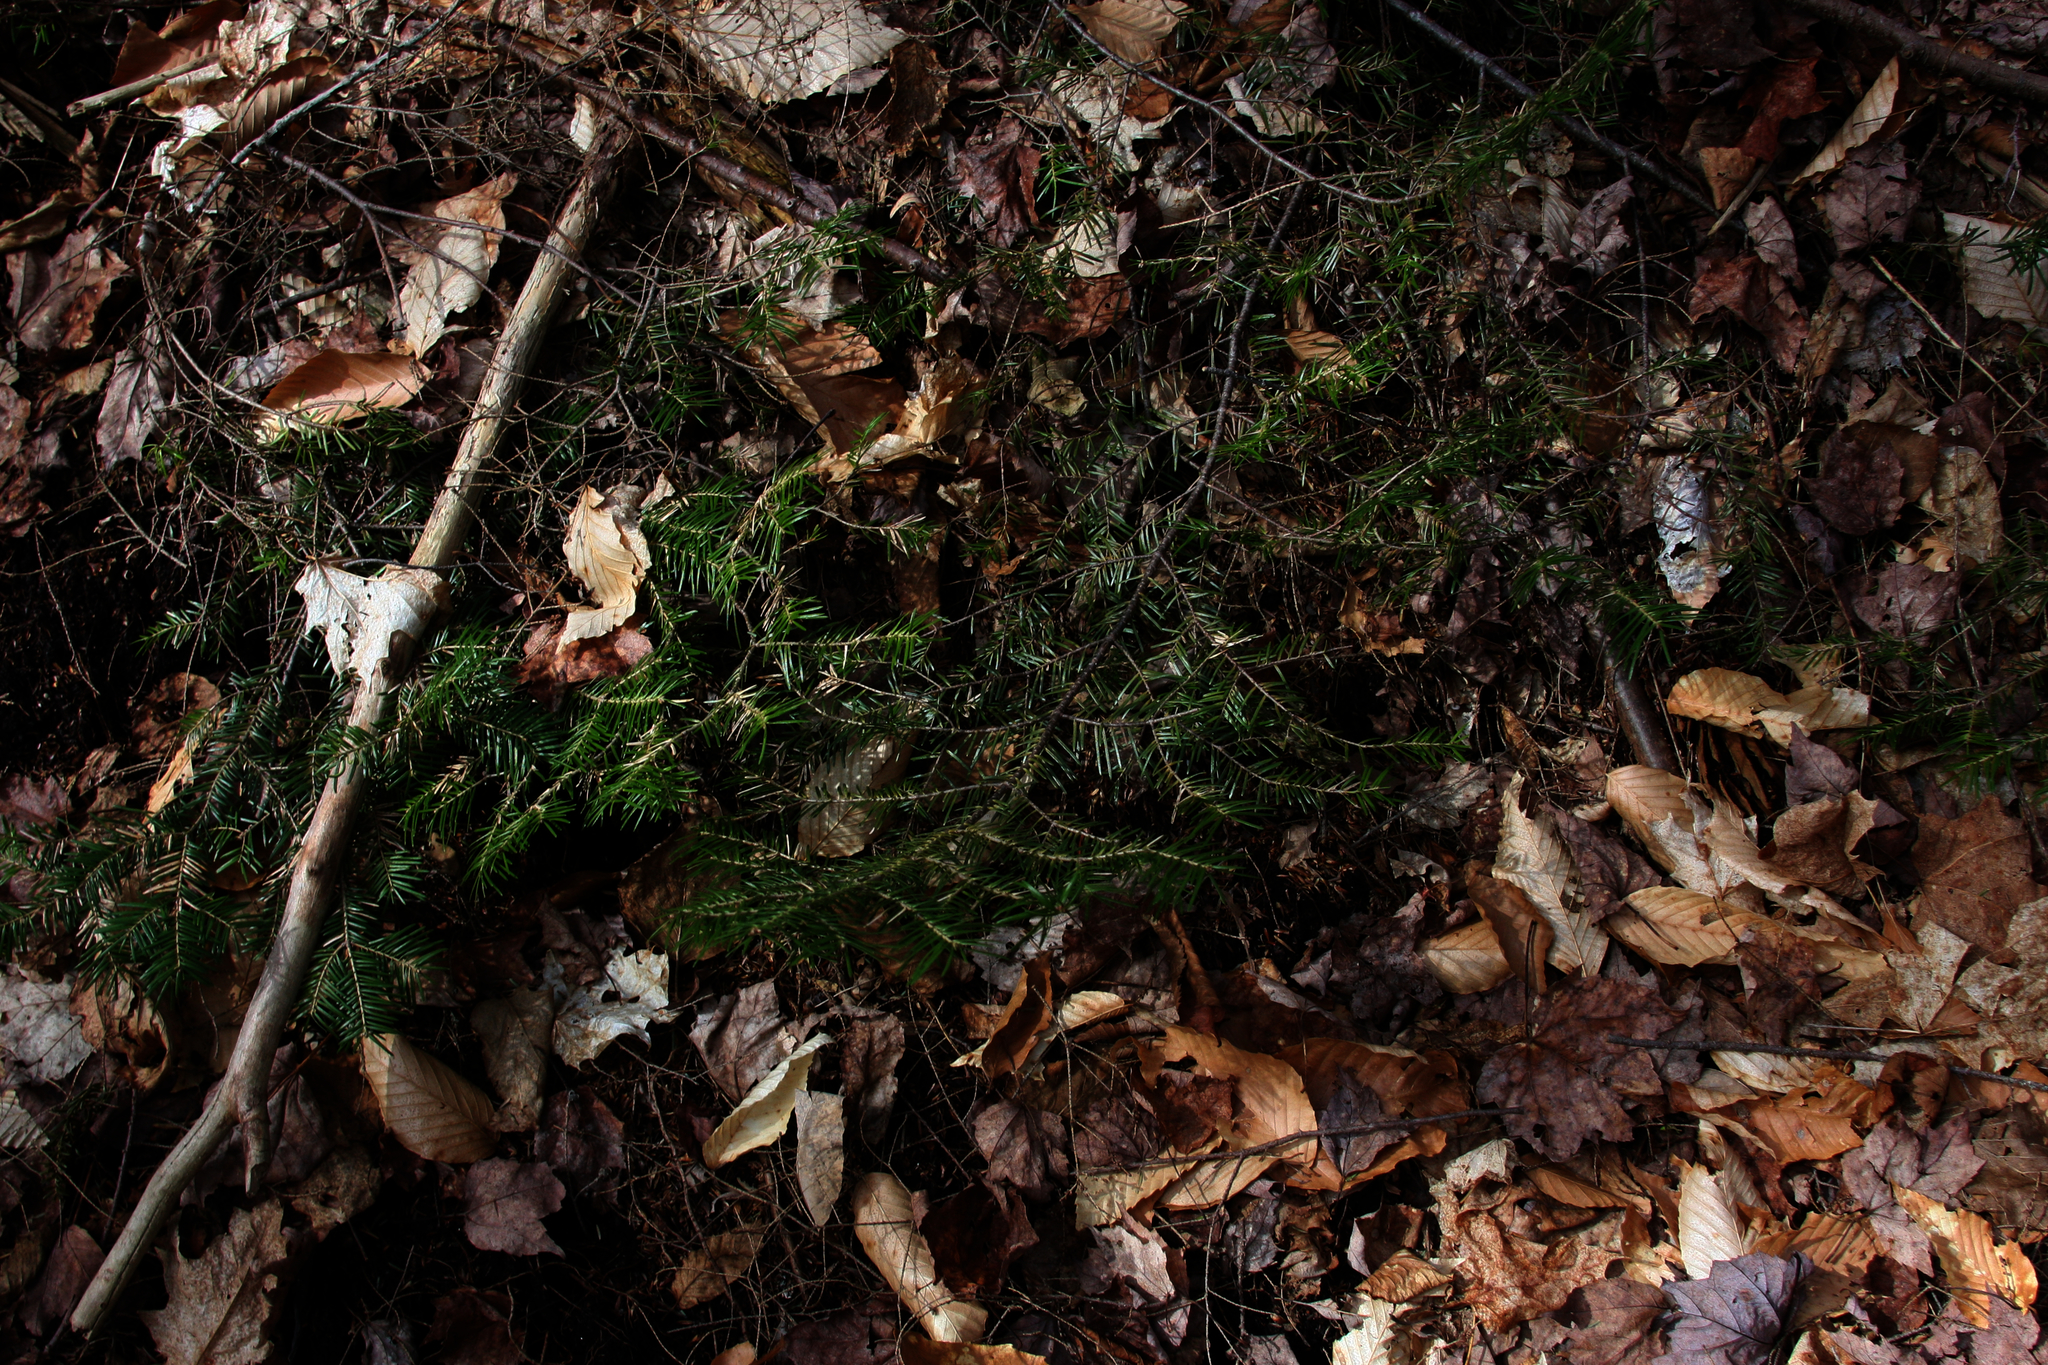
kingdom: Plantae
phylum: Tracheophyta
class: Pinopsida
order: Pinales
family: Pinaceae
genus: Abies
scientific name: Abies balsamea
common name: Balsam fir
